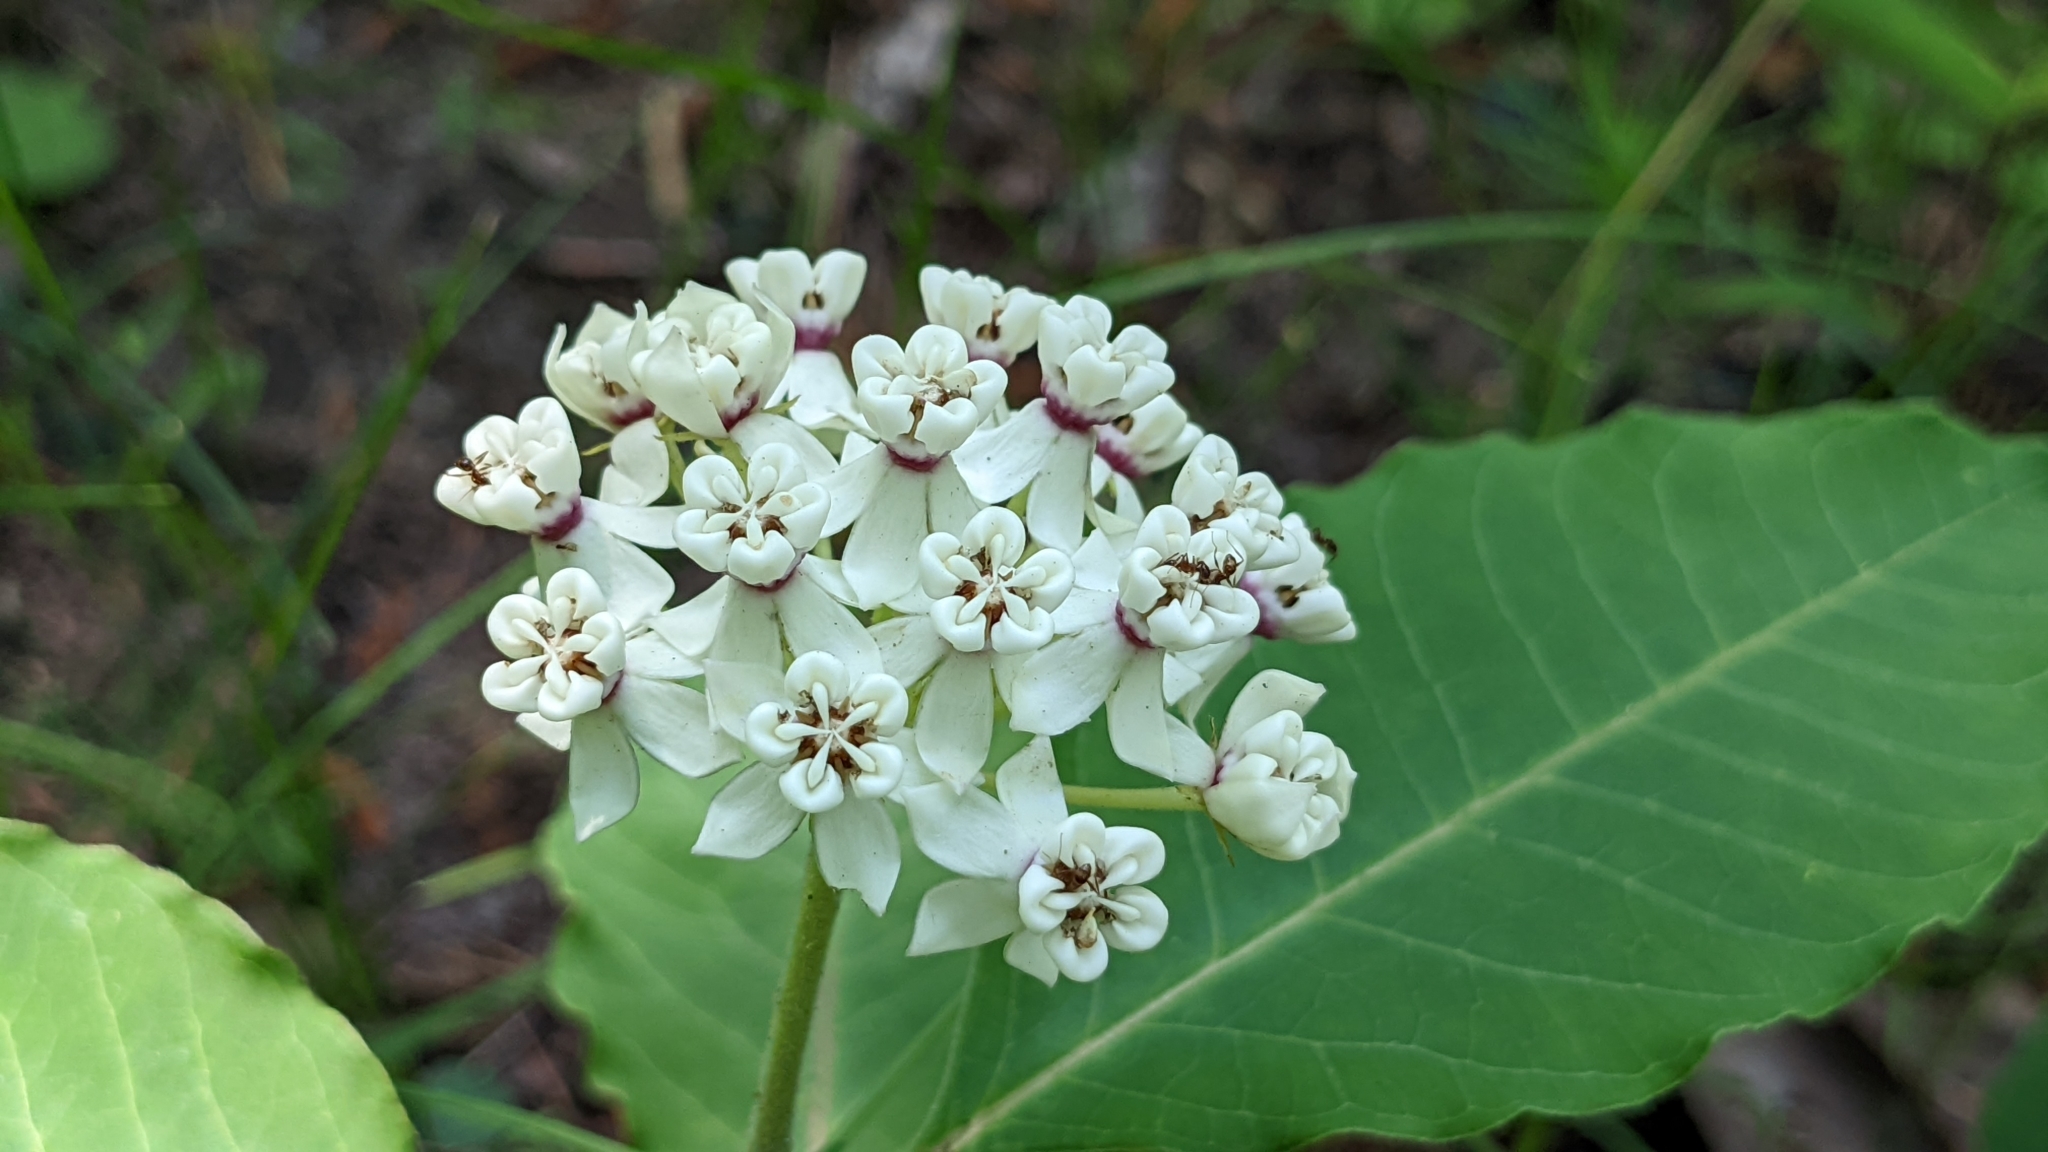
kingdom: Plantae
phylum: Tracheophyta
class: Magnoliopsida
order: Gentianales
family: Apocynaceae
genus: Asclepias
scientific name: Asclepias variegata
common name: Variegated milkweed
